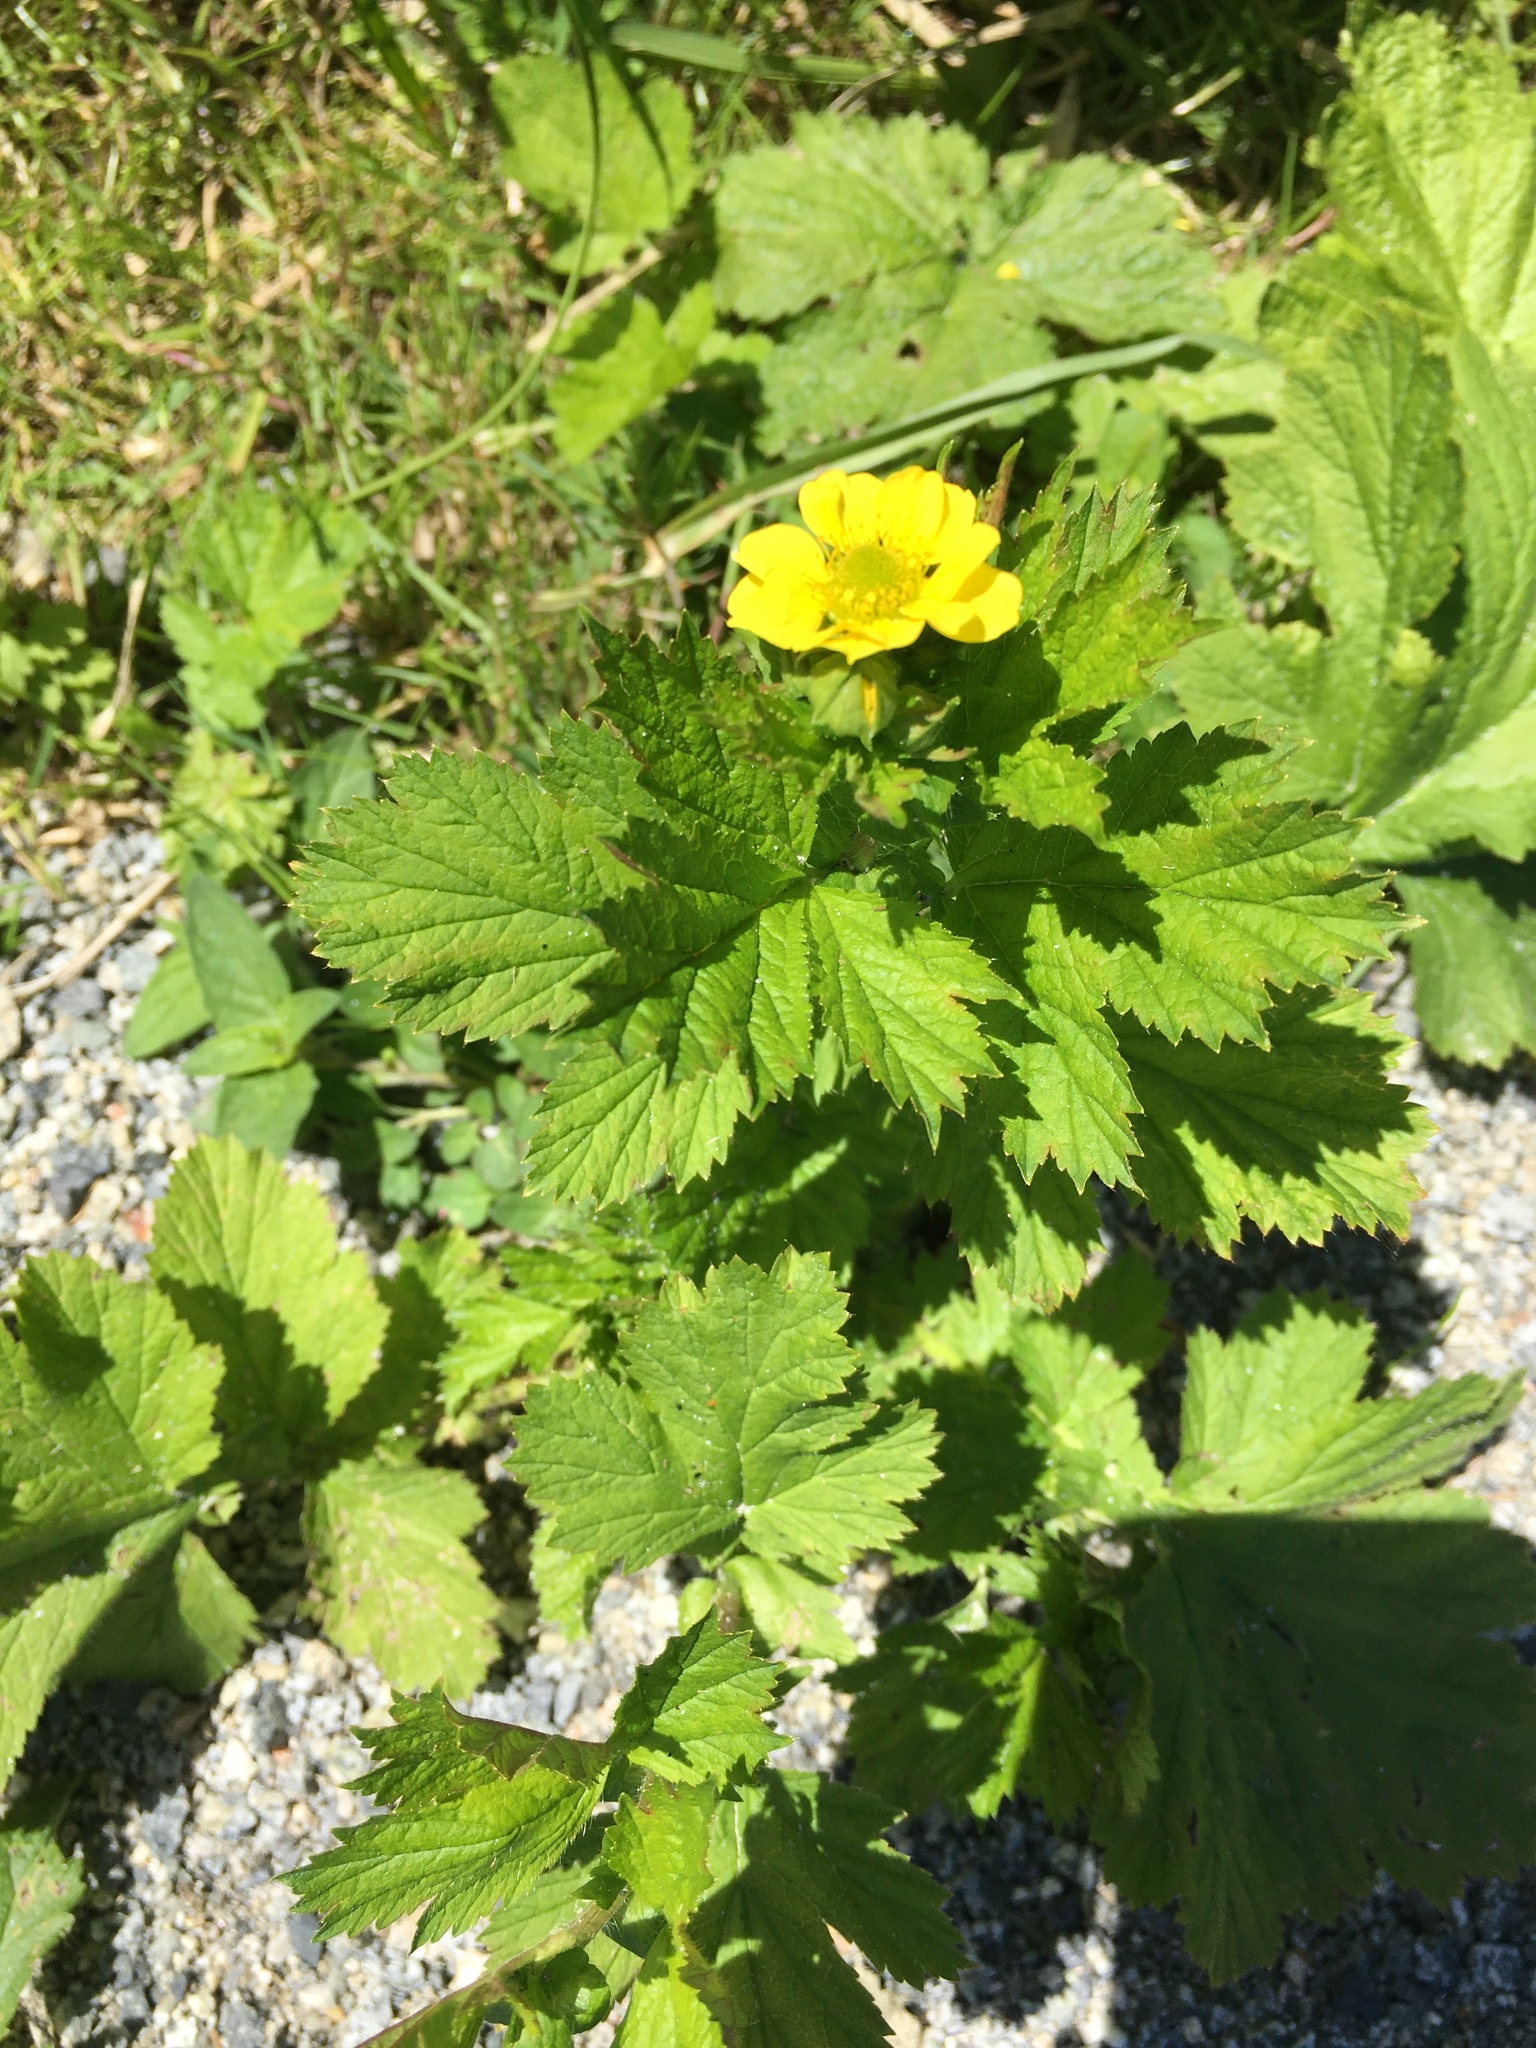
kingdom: Plantae
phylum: Tracheophyta
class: Magnoliopsida
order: Rosales
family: Rosaceae
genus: Geum
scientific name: Geum macrophyllum
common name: Large-leaved avens
